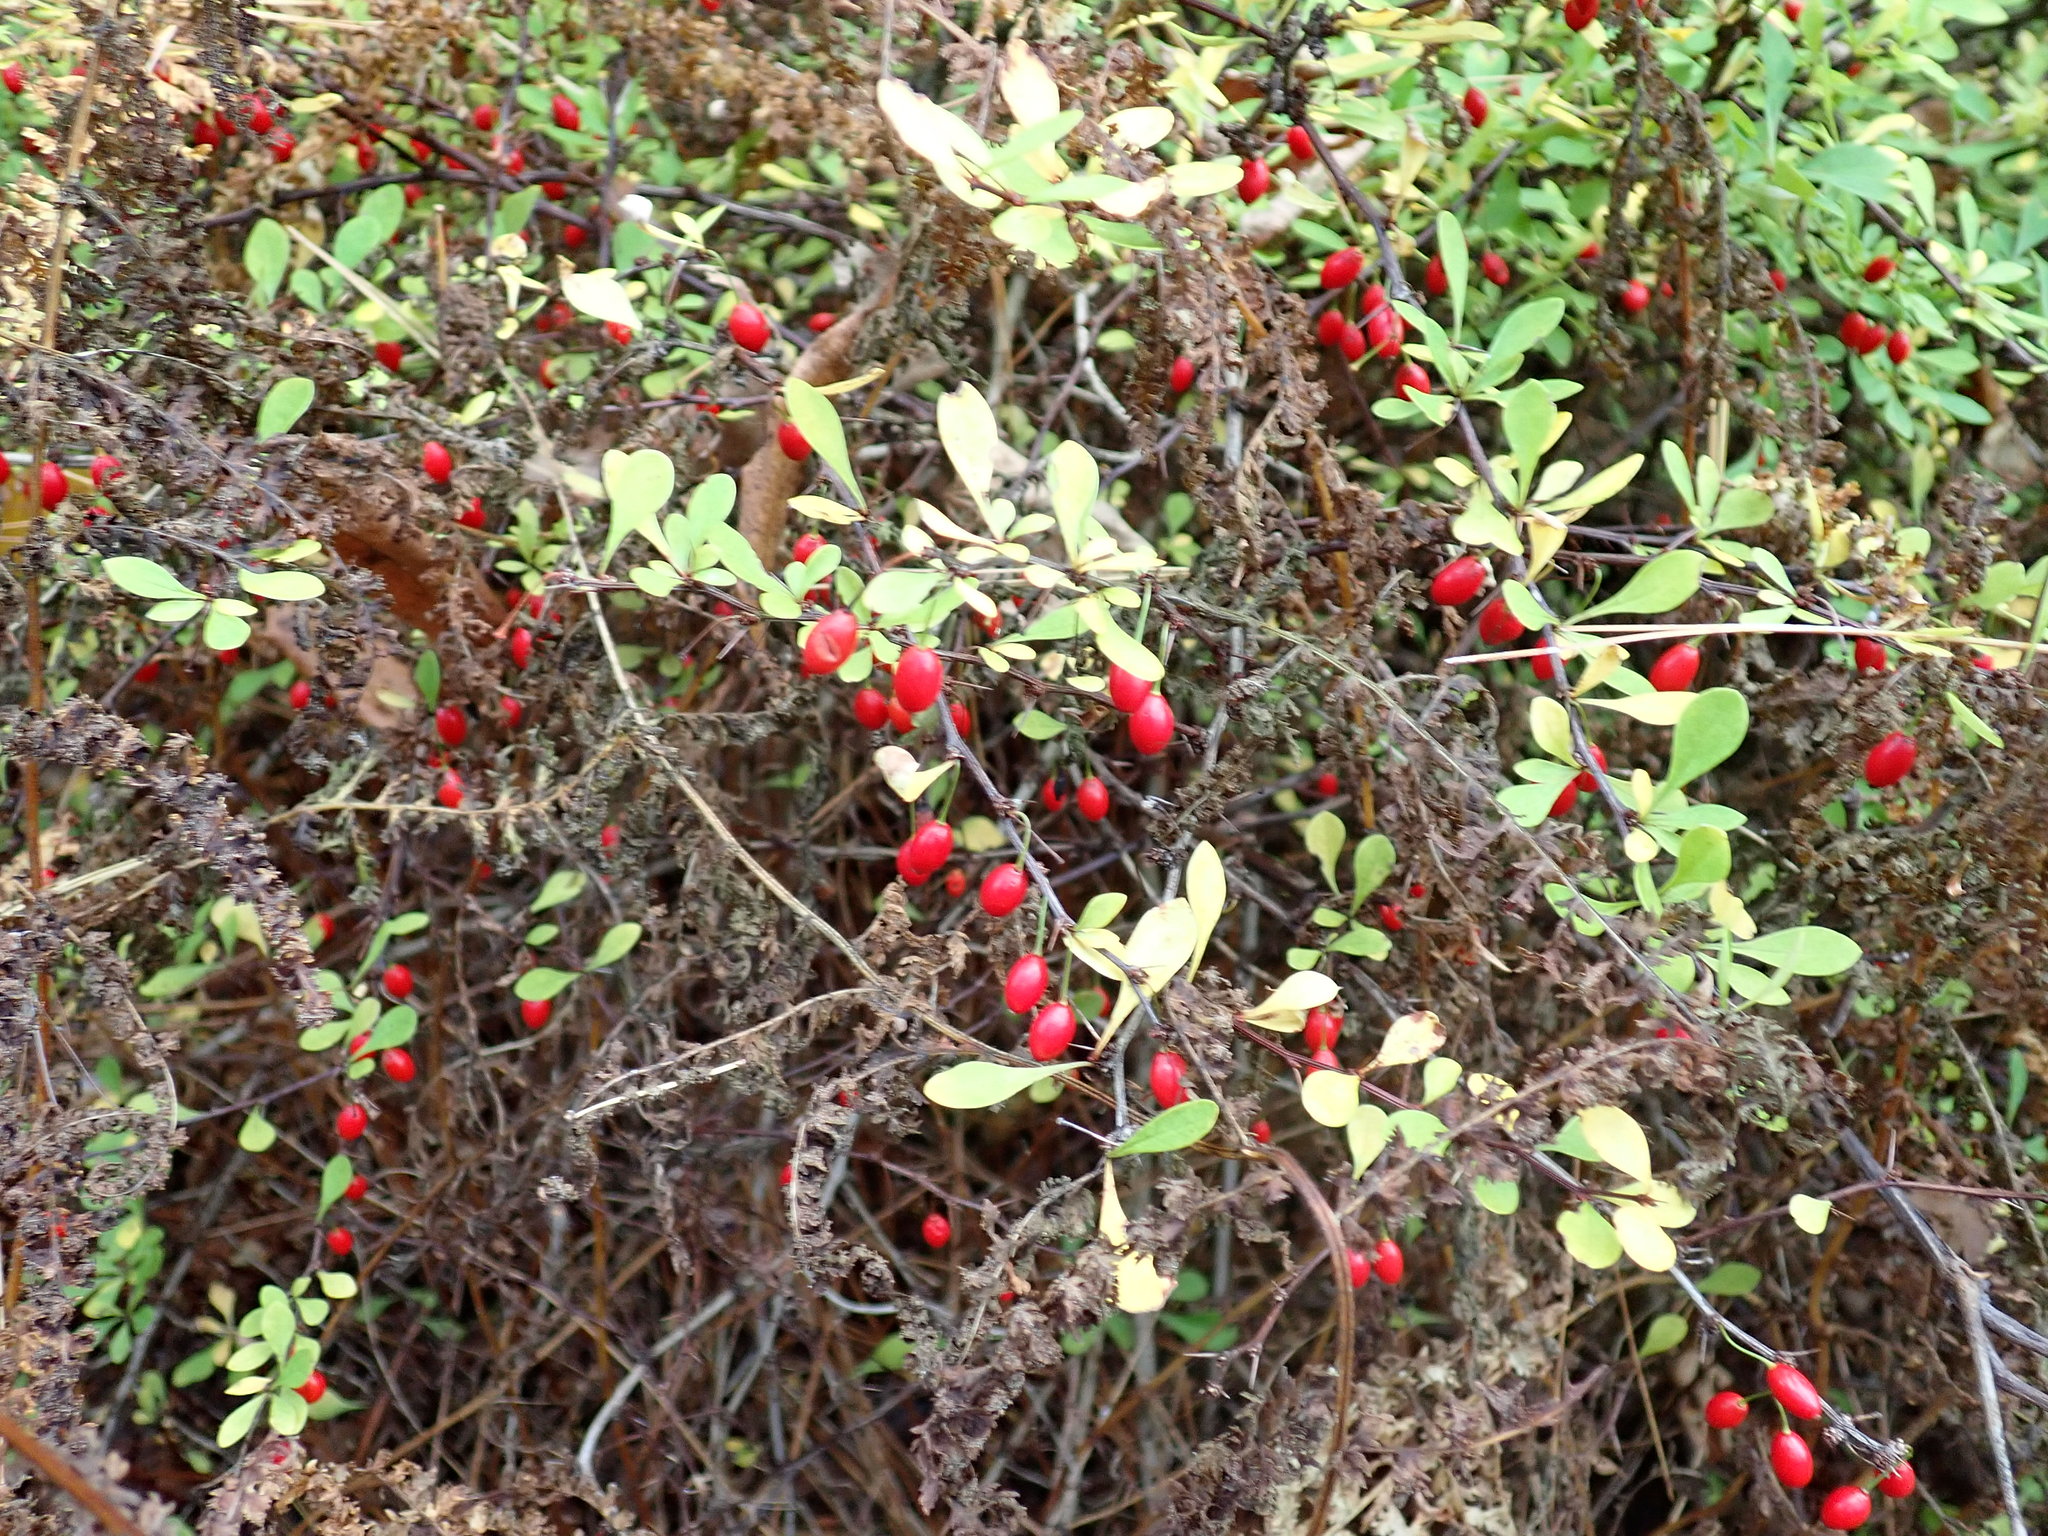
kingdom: Plantae
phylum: Tracheophyta
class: Magnoliopsida
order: Ranunculales
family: Berberidaceae
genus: Berberis
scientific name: Berberis thunbergii
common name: Japanese barberry
